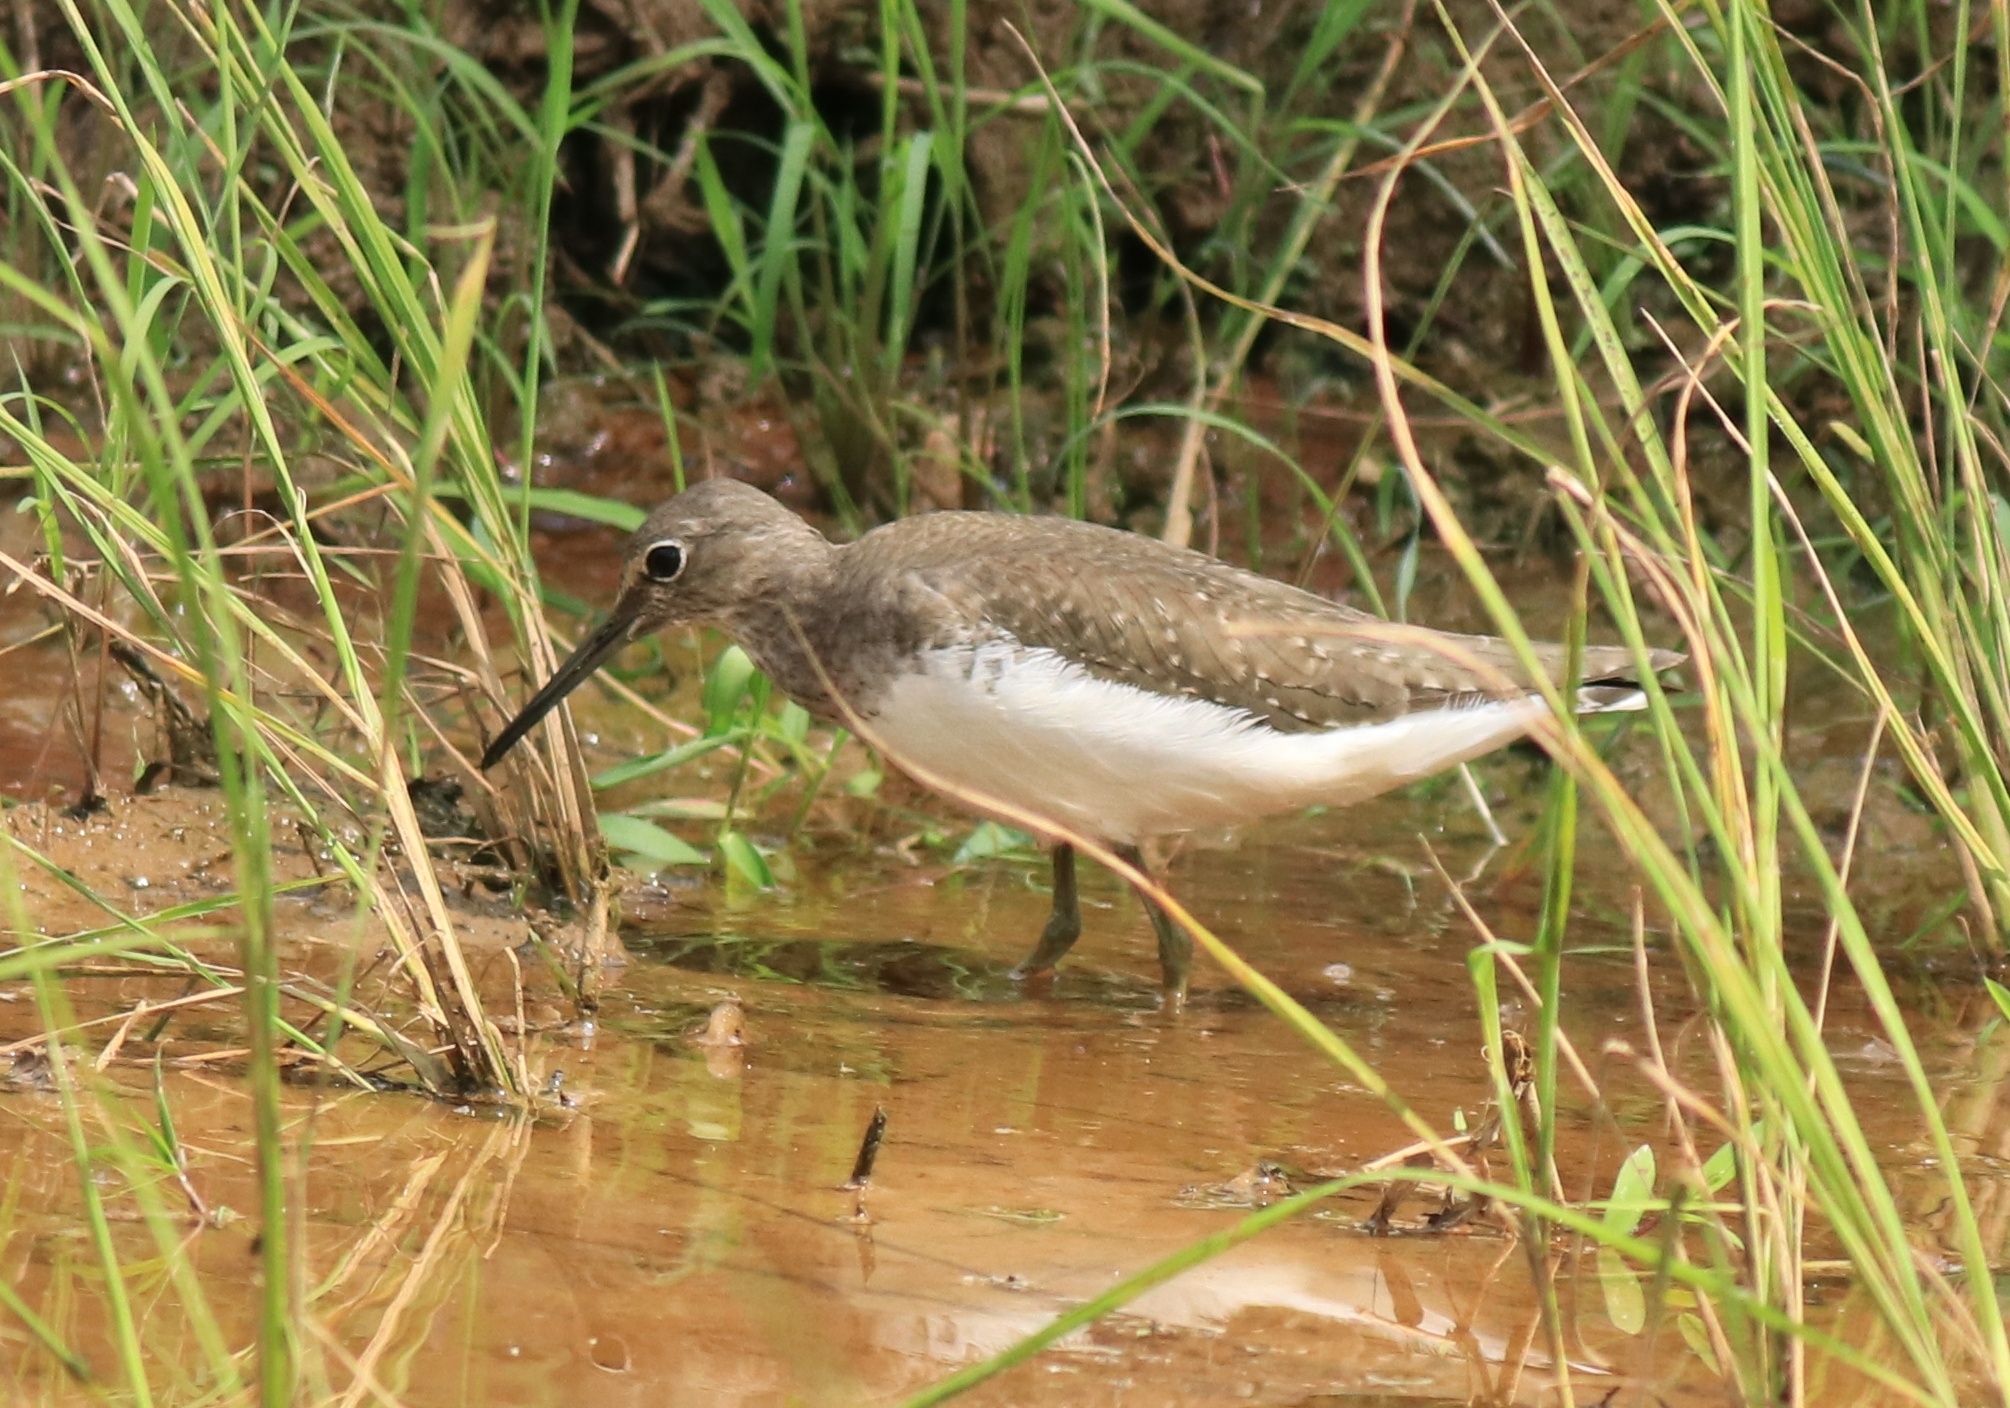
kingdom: Animalia
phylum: Chordata
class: Aves
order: Charadriiformes
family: Scolopacidae
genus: Tringa
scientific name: Tringa ochropus
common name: Green sandpiper
